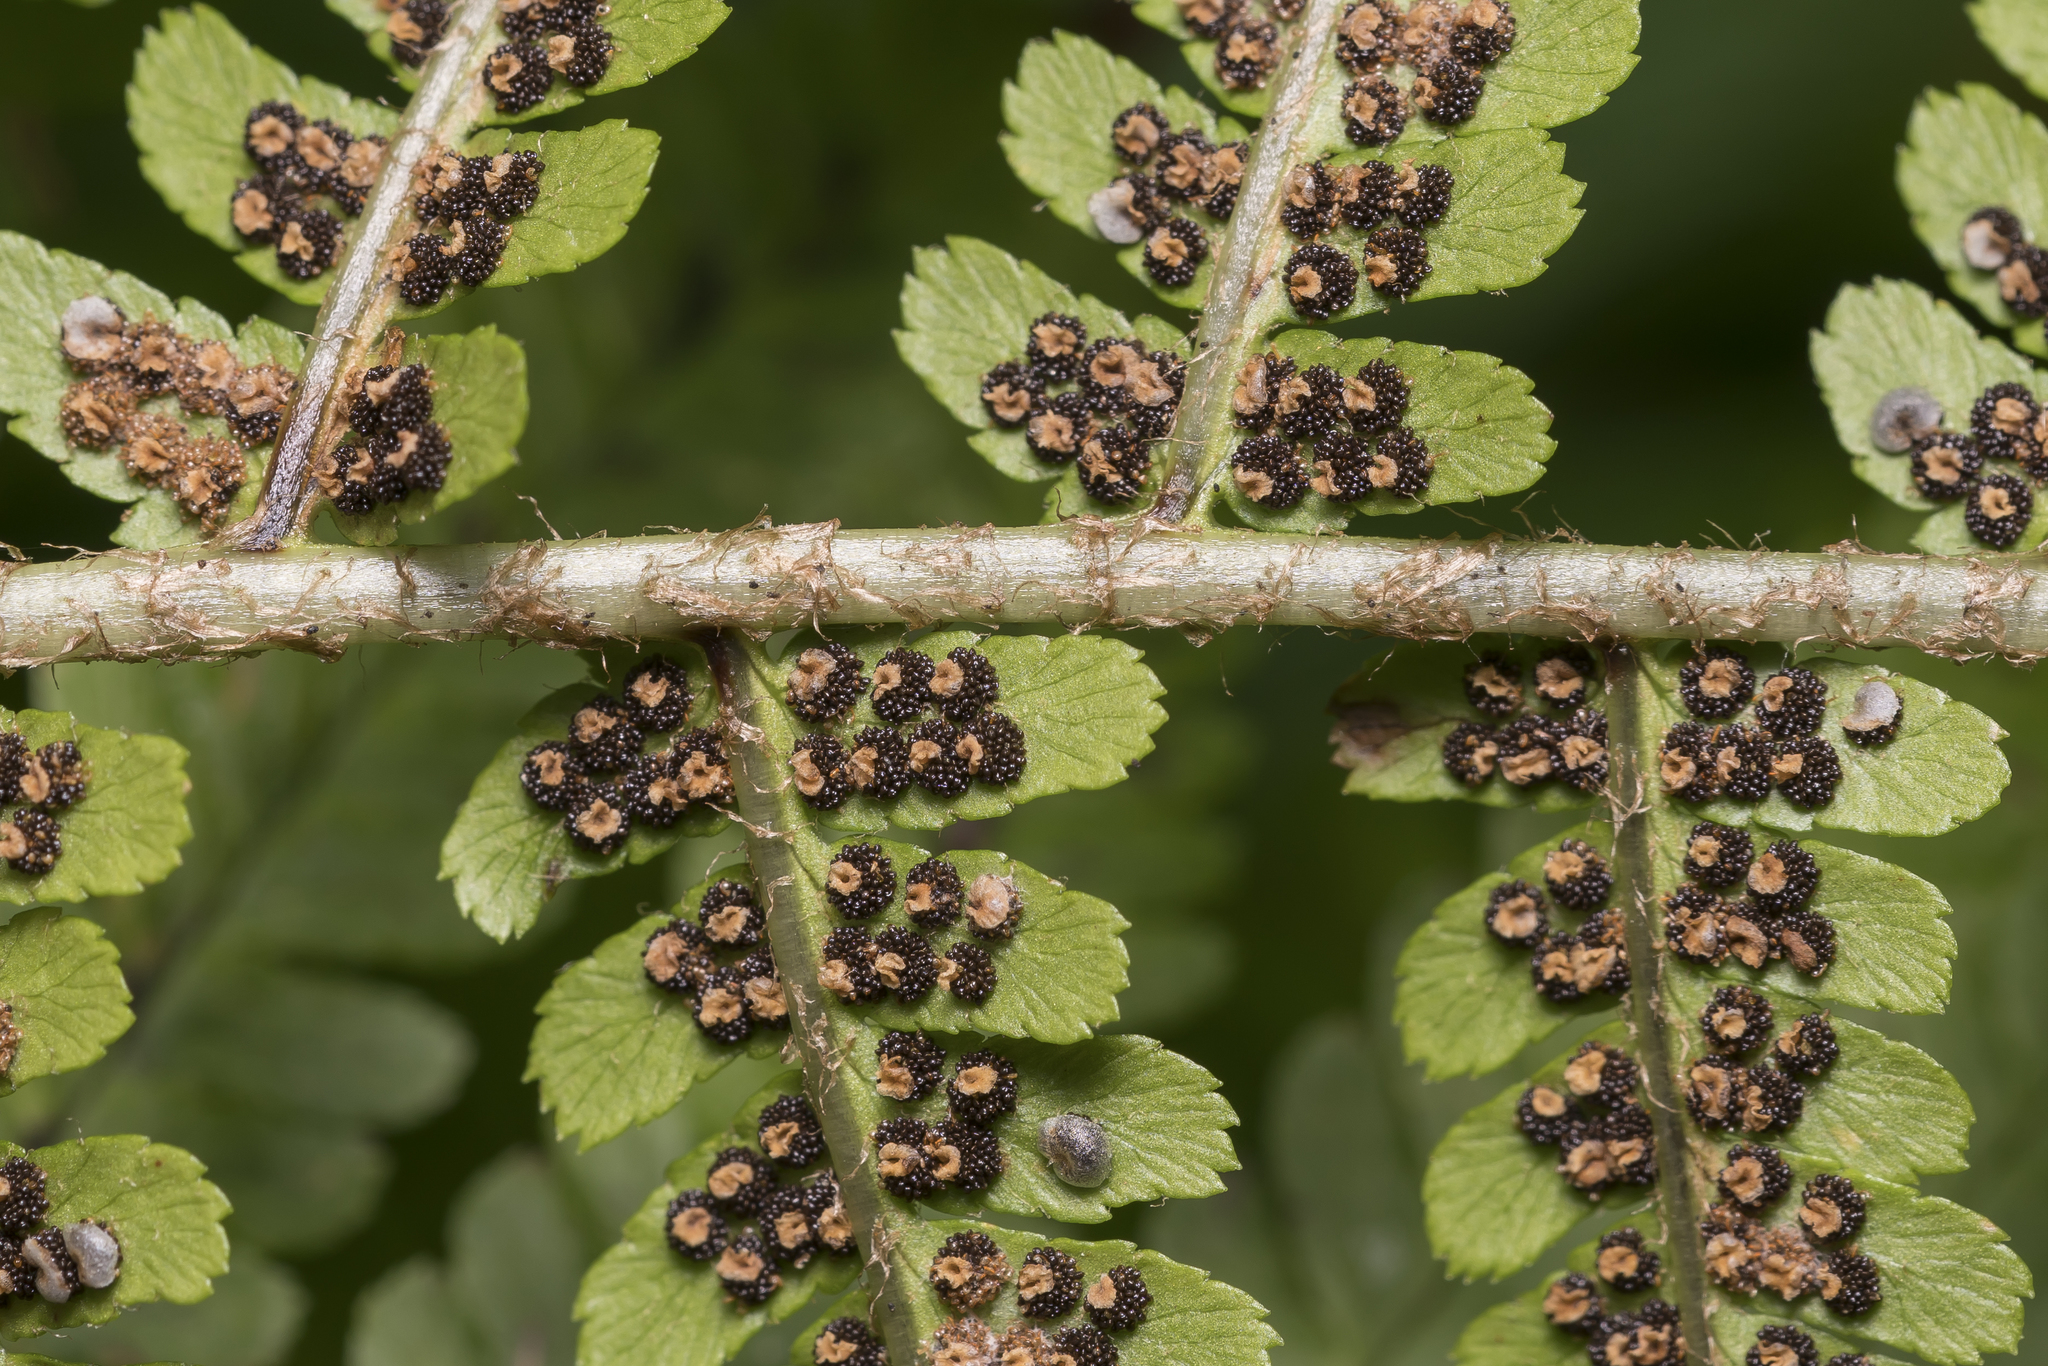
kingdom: Plantae
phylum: Tracheophyta
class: Polypodiopsida
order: Polypodiales
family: Dryopteridaceae
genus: Dryopteris
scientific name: Dryopteris filix-mas
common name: Male fern
